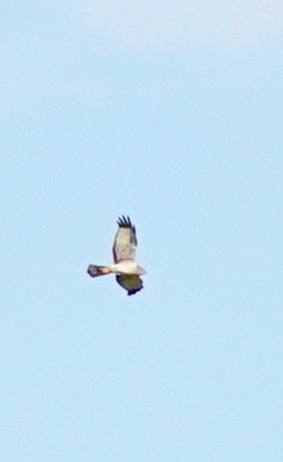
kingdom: Animalia
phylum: Chordata
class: Aves
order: Accipitriformes
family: Accipitridae
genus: Circus
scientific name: Circus cyaneus
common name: Hen harrier
